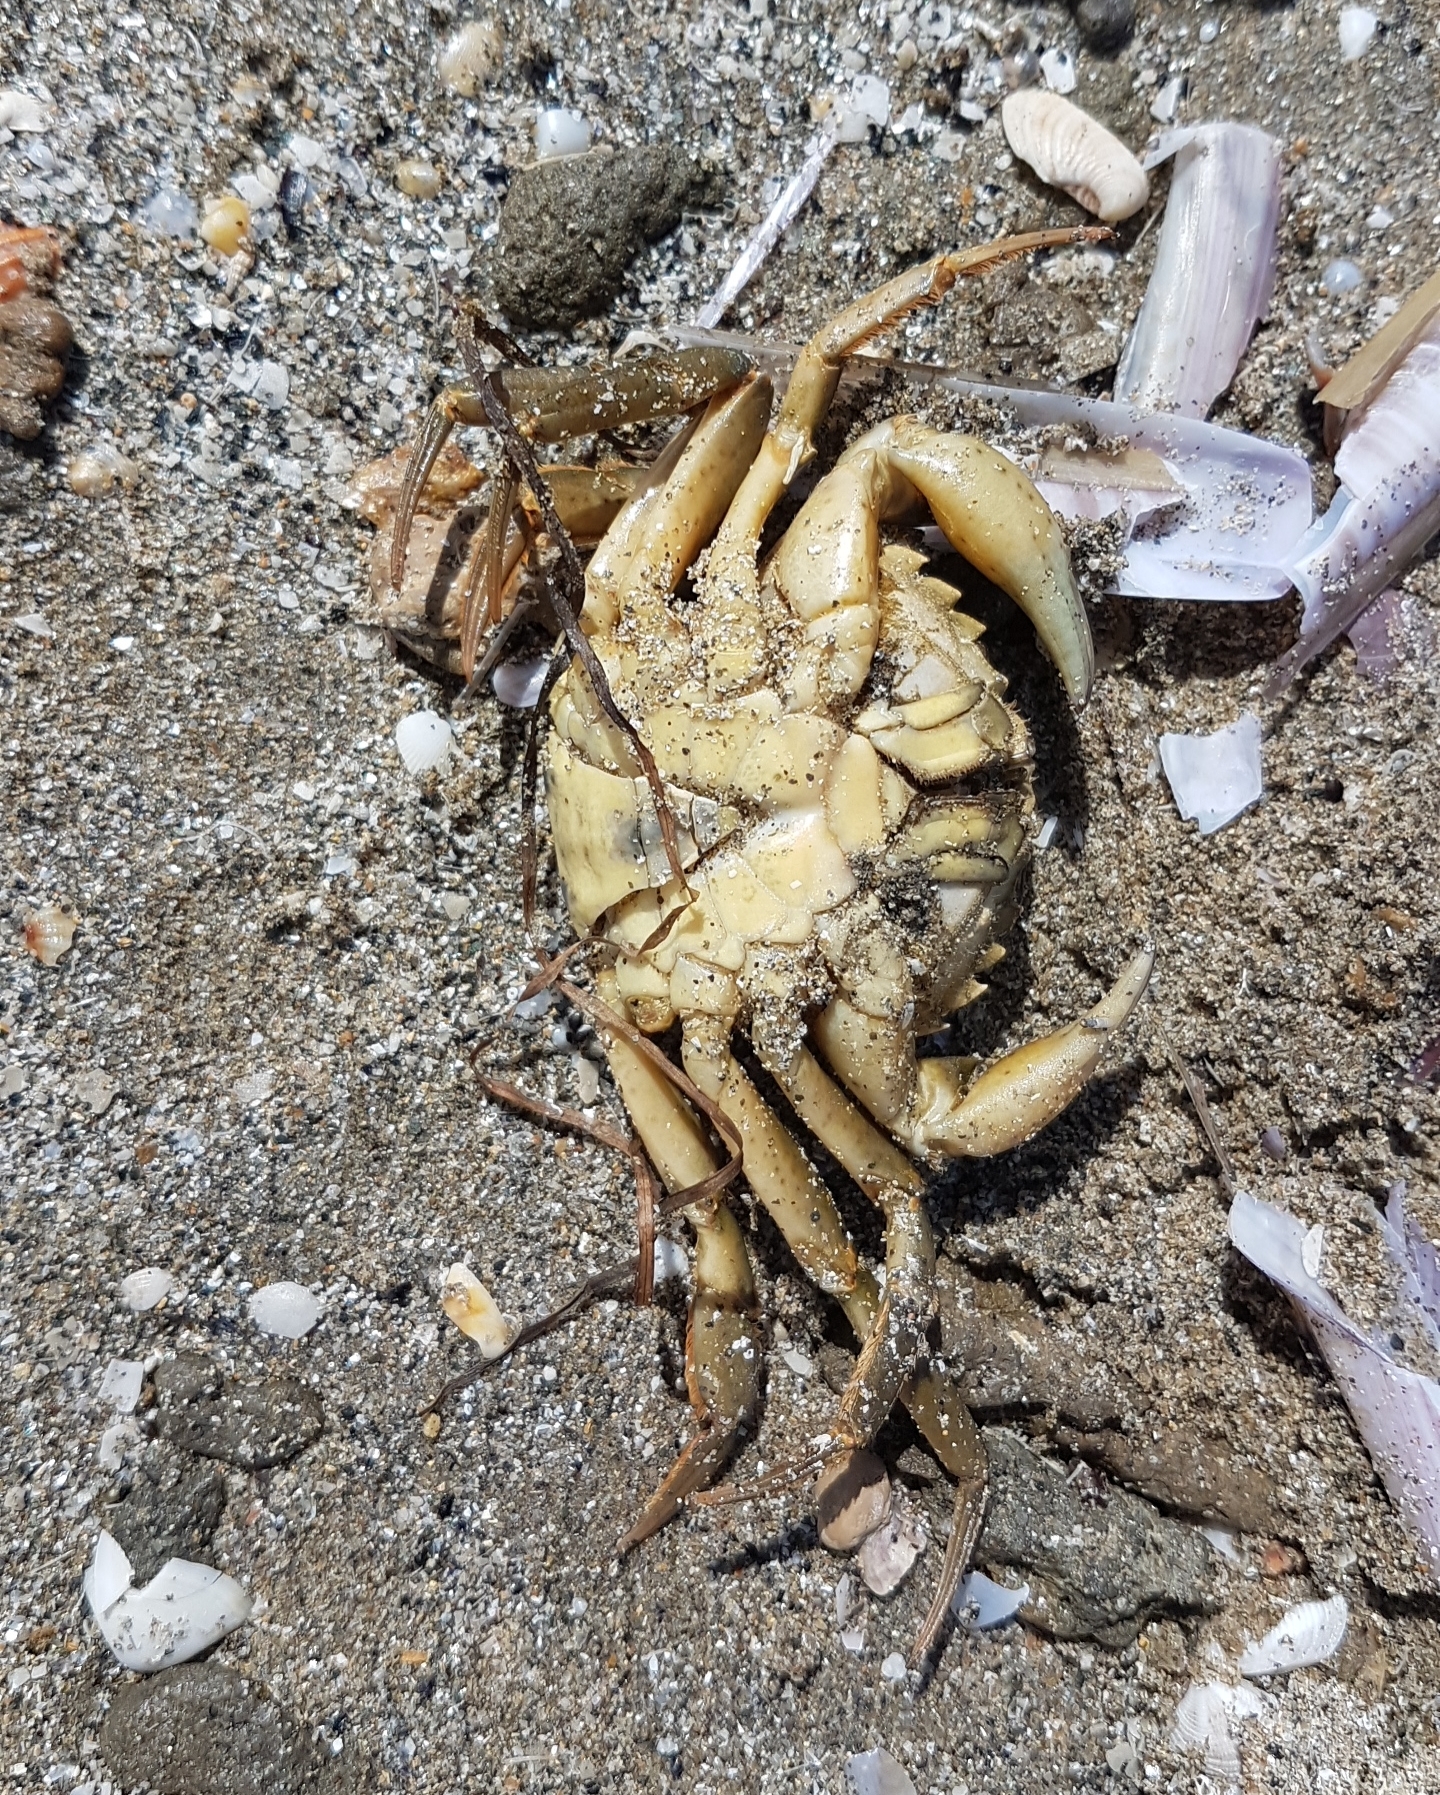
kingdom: Animalia
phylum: Arthropoda
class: Malacostraca
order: Decapoda
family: Carcinidae
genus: Carcinus
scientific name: Carcinus aestuarii
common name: Mediterranean green crab
